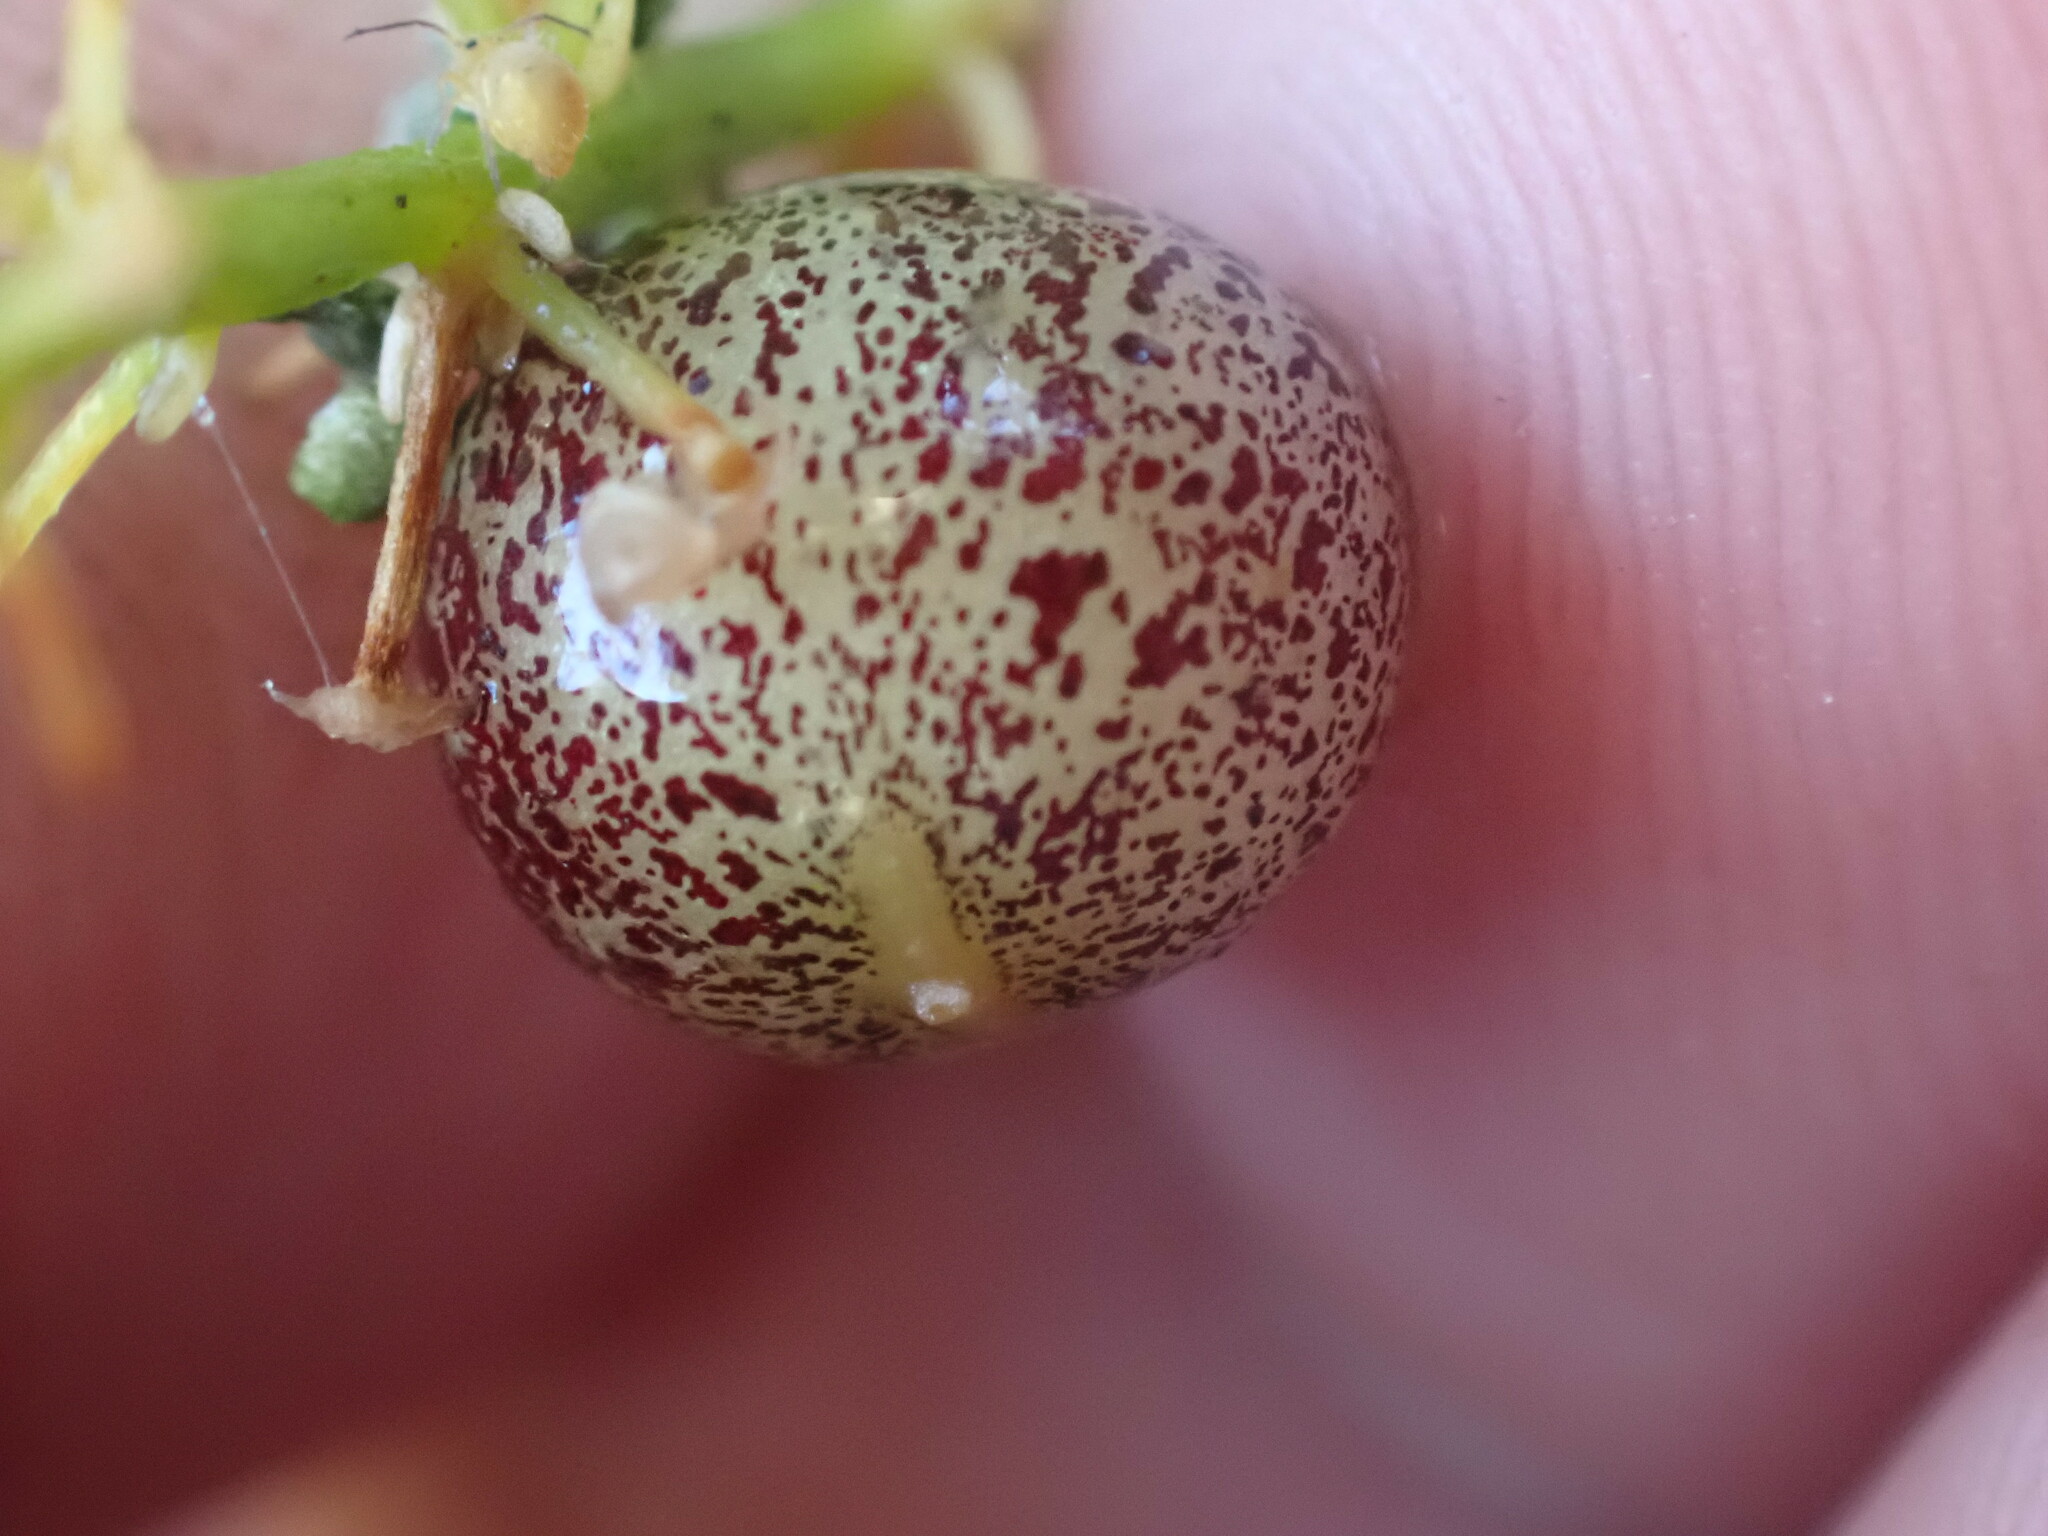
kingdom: Plantae
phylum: Tracheophyta
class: Liliopsida
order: Asparagales
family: Asparagaceae
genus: Maianthemum
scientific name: Maianthemum dilatatum
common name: False lily-of-the-valley
